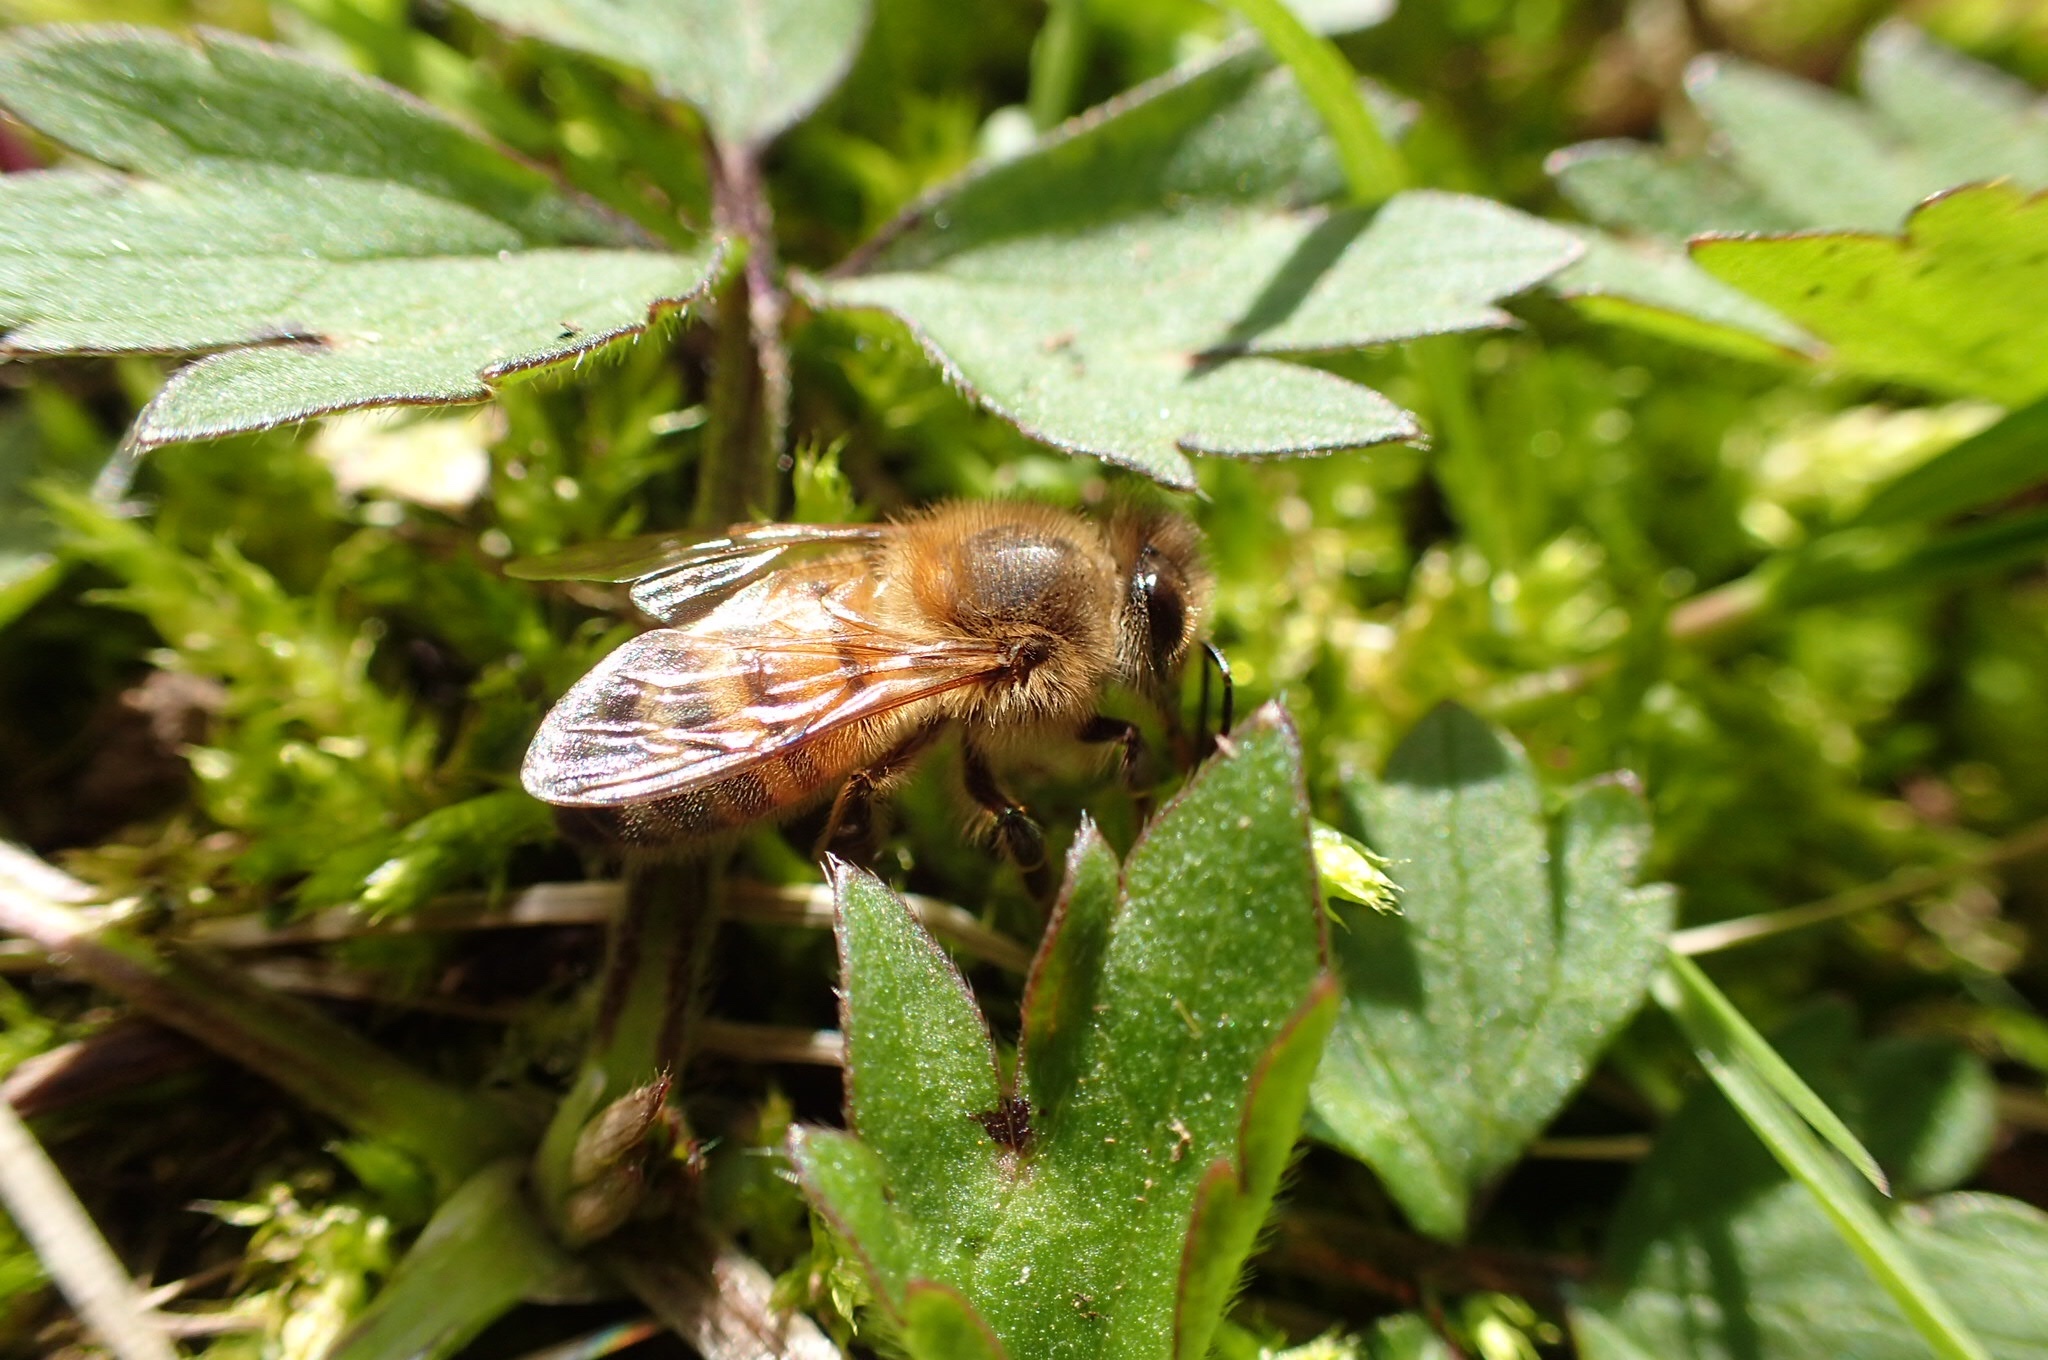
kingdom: Animalia
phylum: Arthropoda
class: Insecta
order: Hymenoptera
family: Apidae
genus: Apis
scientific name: Apis mellifera
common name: Honey bee
